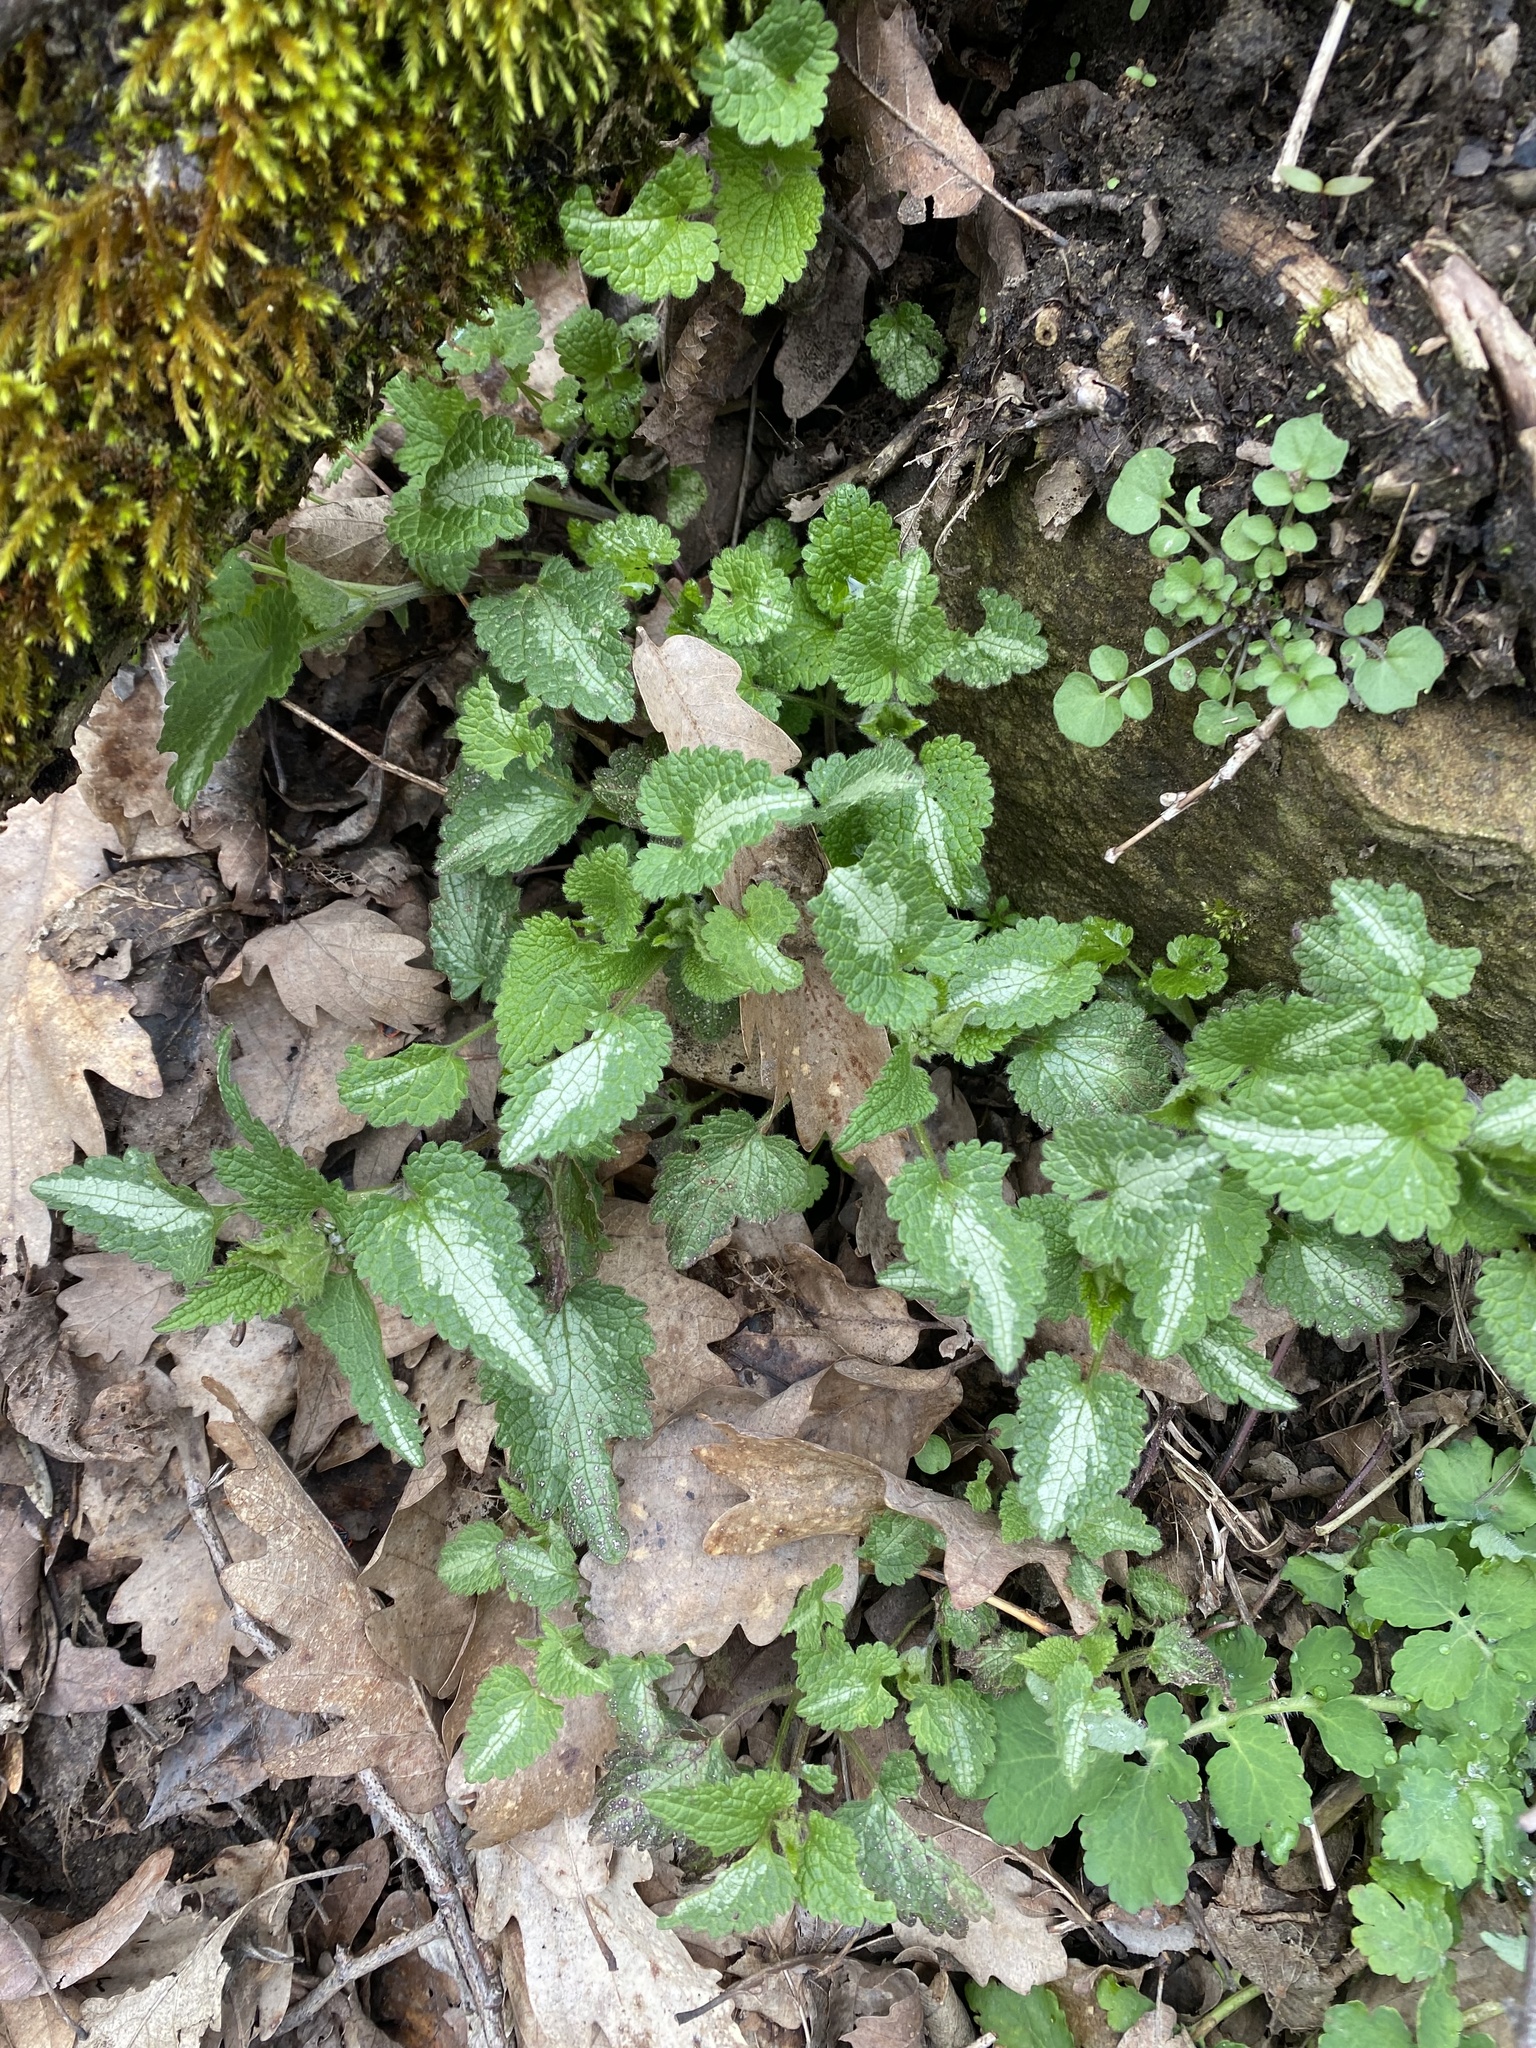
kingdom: Plantae
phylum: Tracheophyta
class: Magnoliopsida
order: Lamiales
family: Lamiaceae
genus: Lamium
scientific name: Lamium maculatum
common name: Spotted dead-nettle
